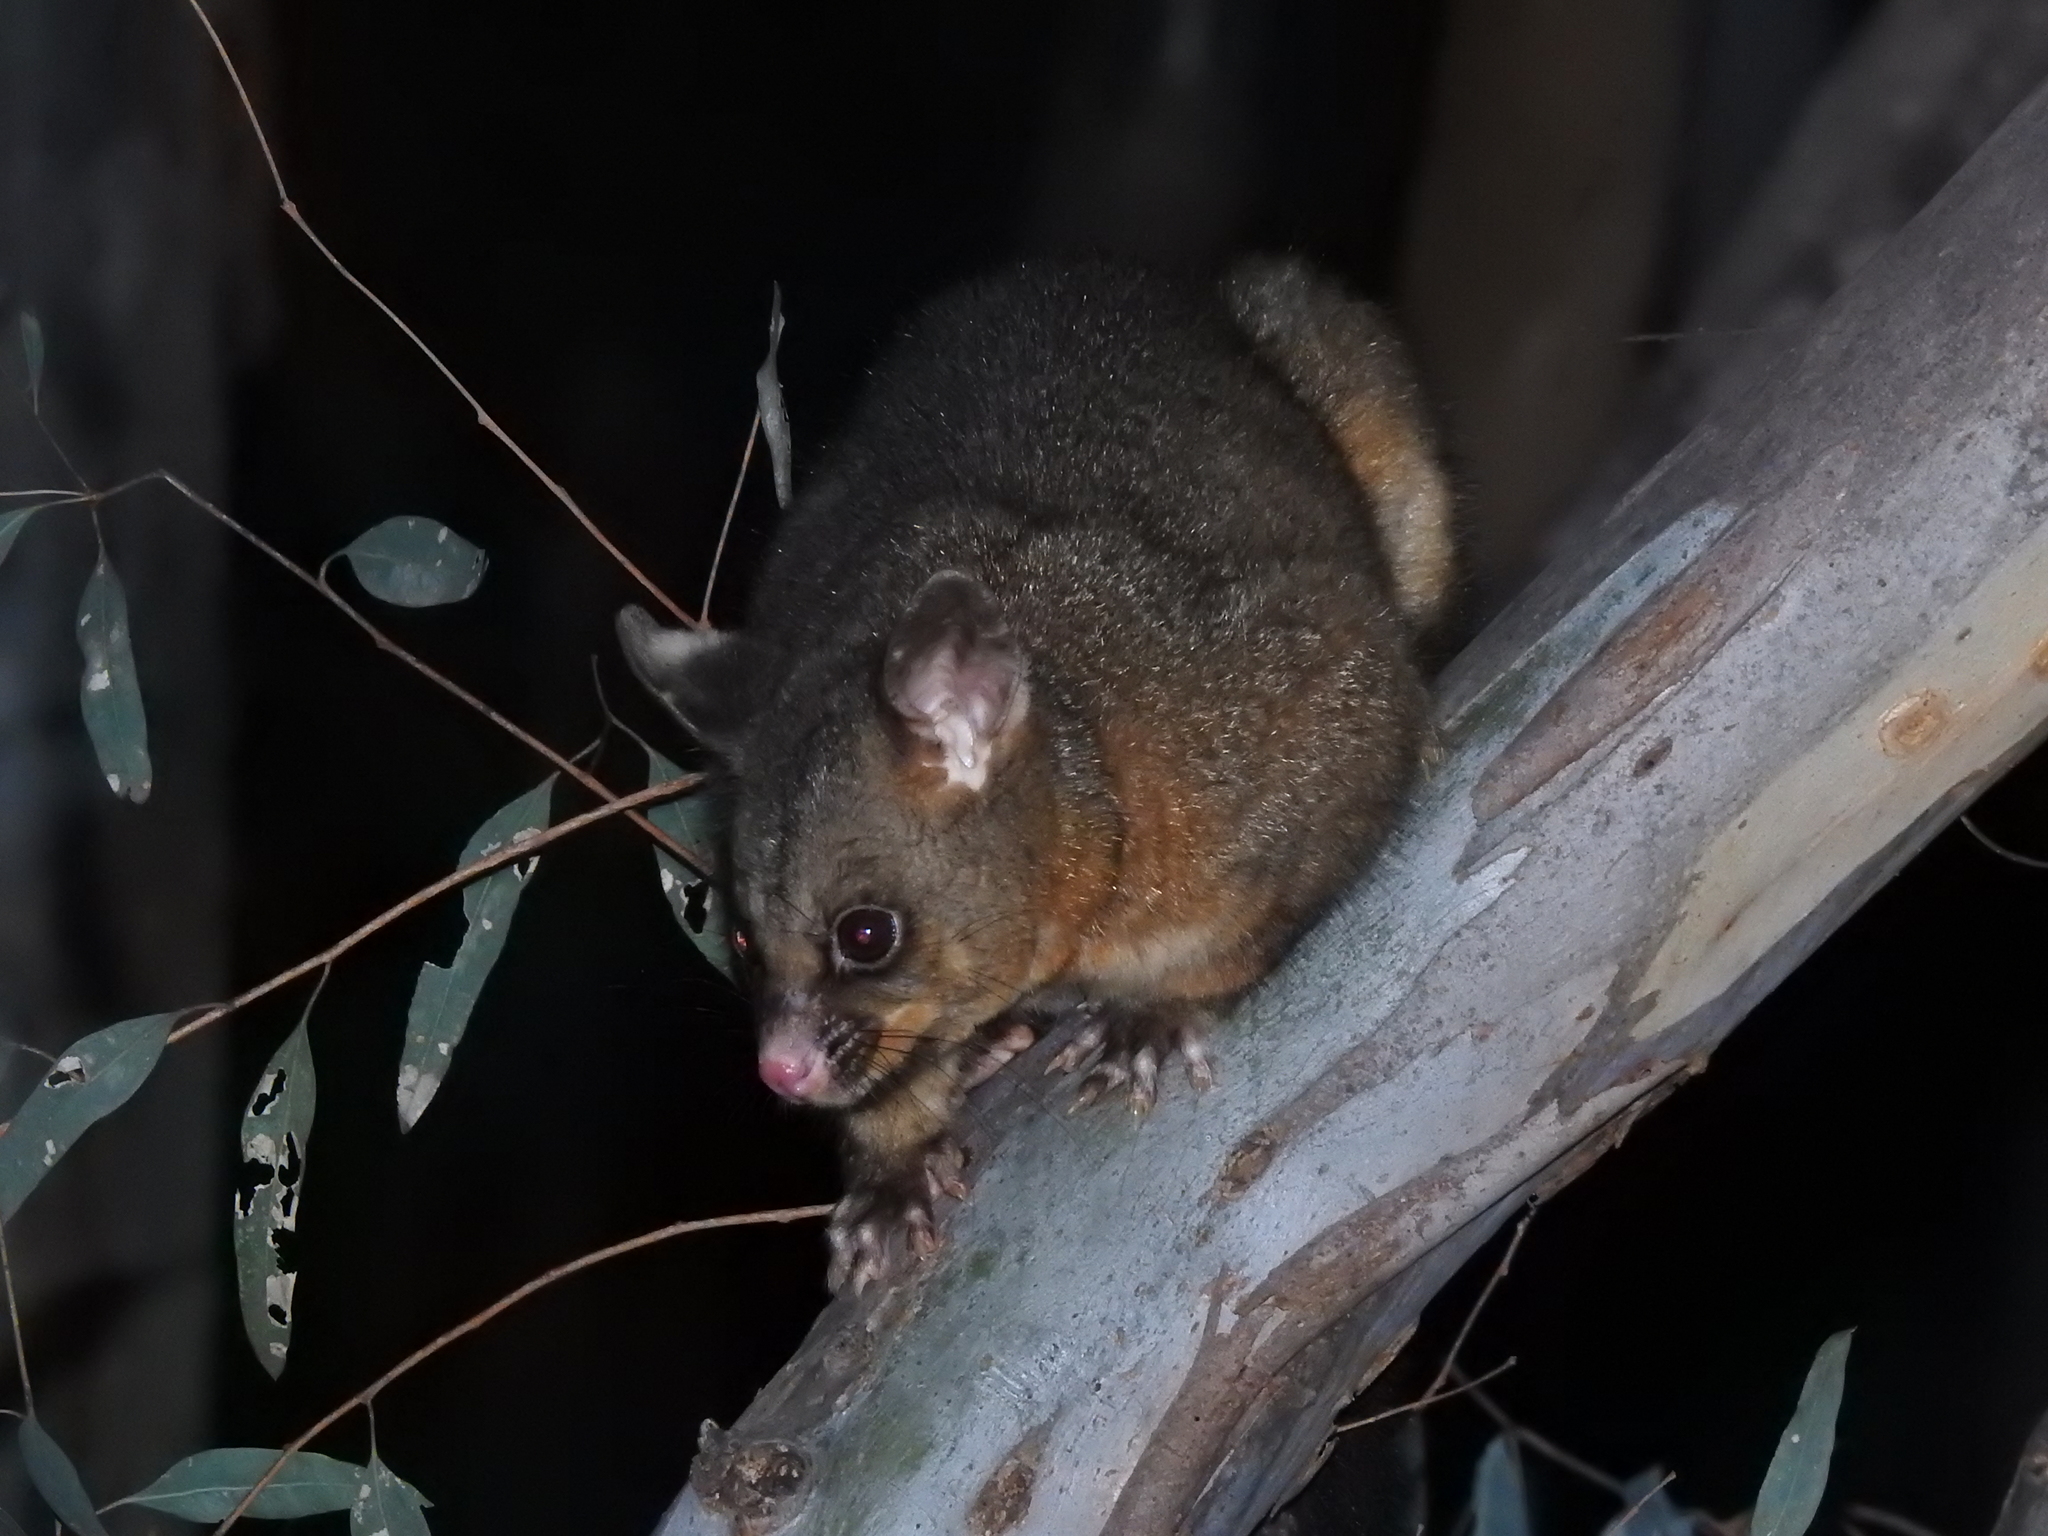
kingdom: Animalia
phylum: Chordata
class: Mammalia
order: Diprotodontia
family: Phalangeridae
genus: Trichosurus
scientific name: Trichosurus vulpecula
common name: Common brushtail
